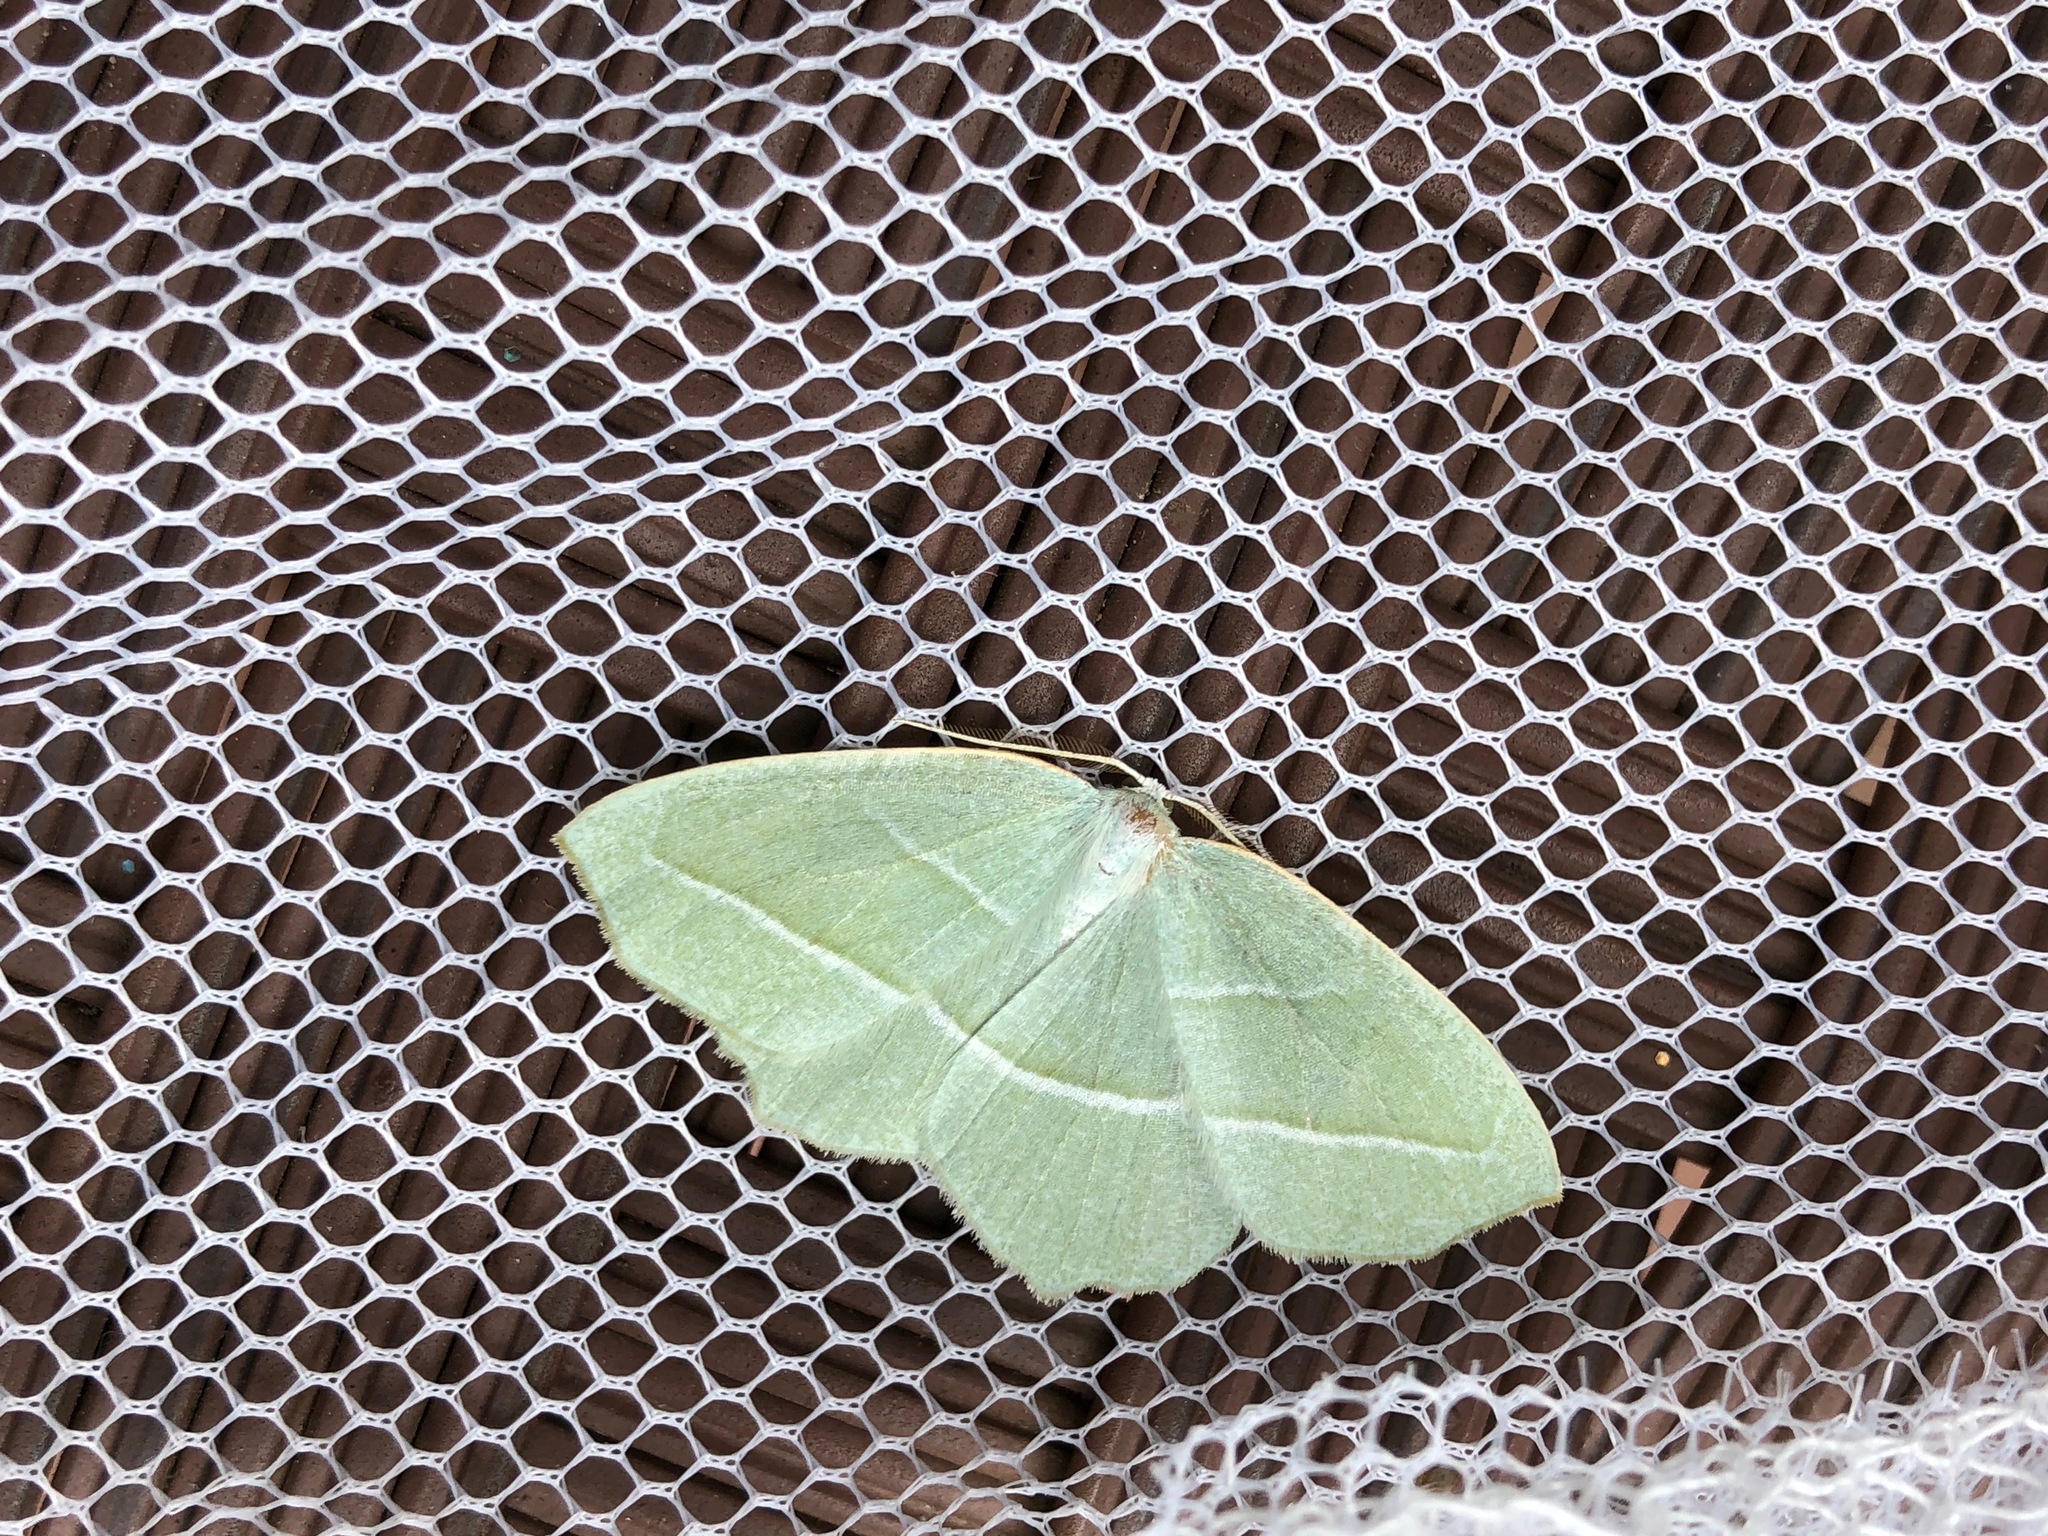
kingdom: Animalia
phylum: Arthropoda
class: Insecta
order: Lepidoptera
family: Geometridae
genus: Campaea
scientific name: Campaea perlata
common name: Fringed looper
